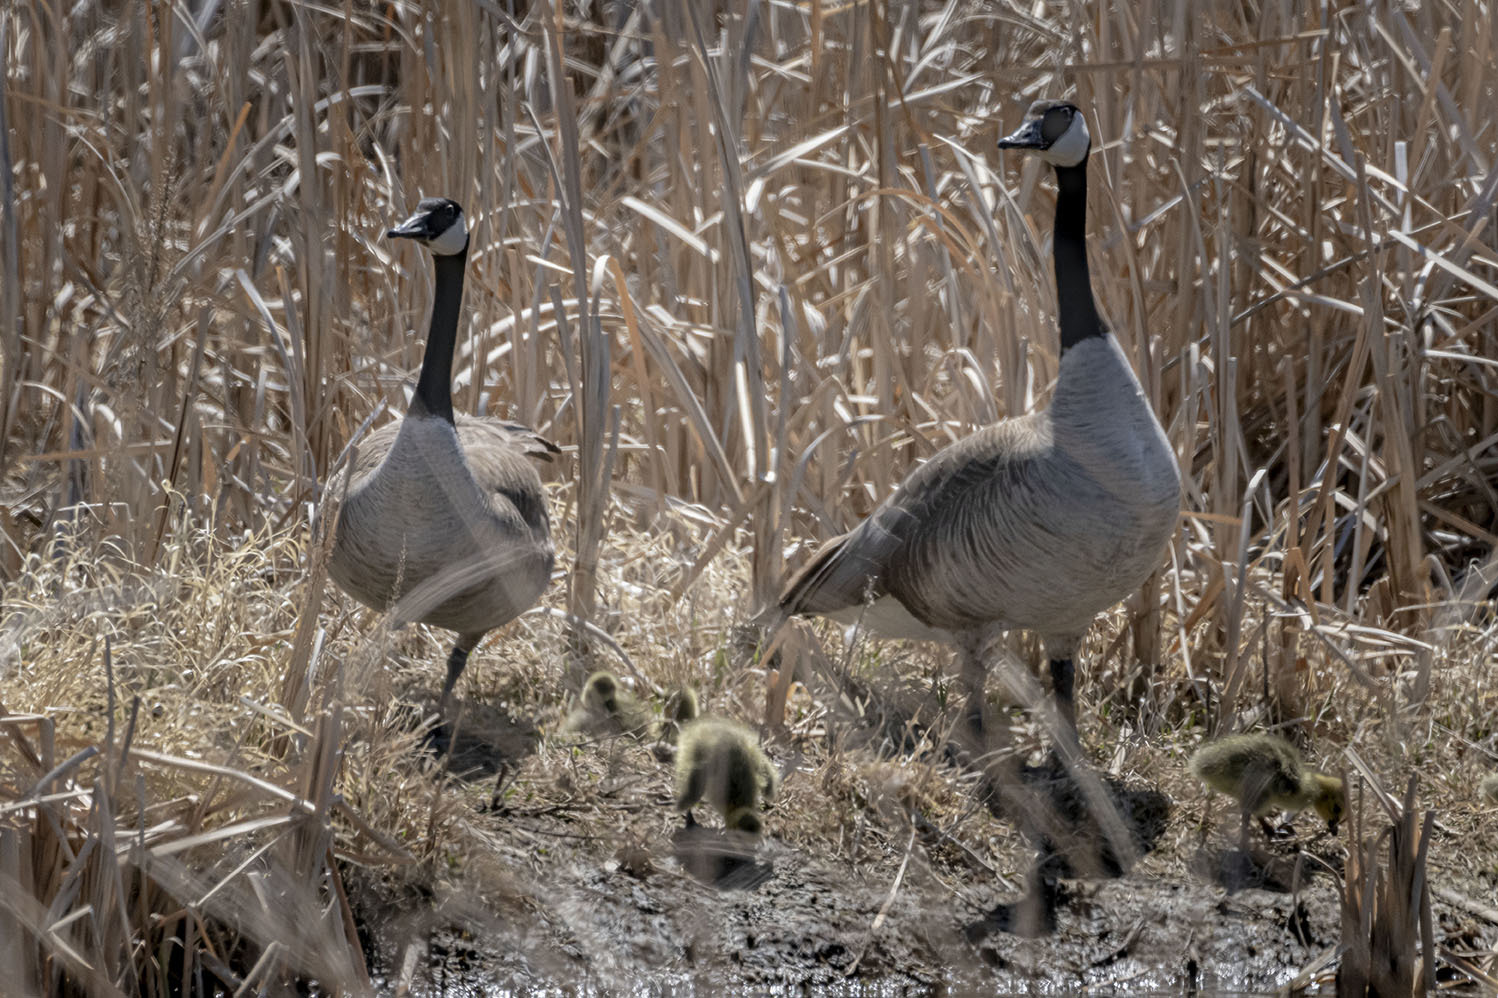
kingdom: Animalia
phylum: Chordata
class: Aves
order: Anseriformes
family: Anatidae
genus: Branta
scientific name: Branta canadensis
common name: Canada goose
